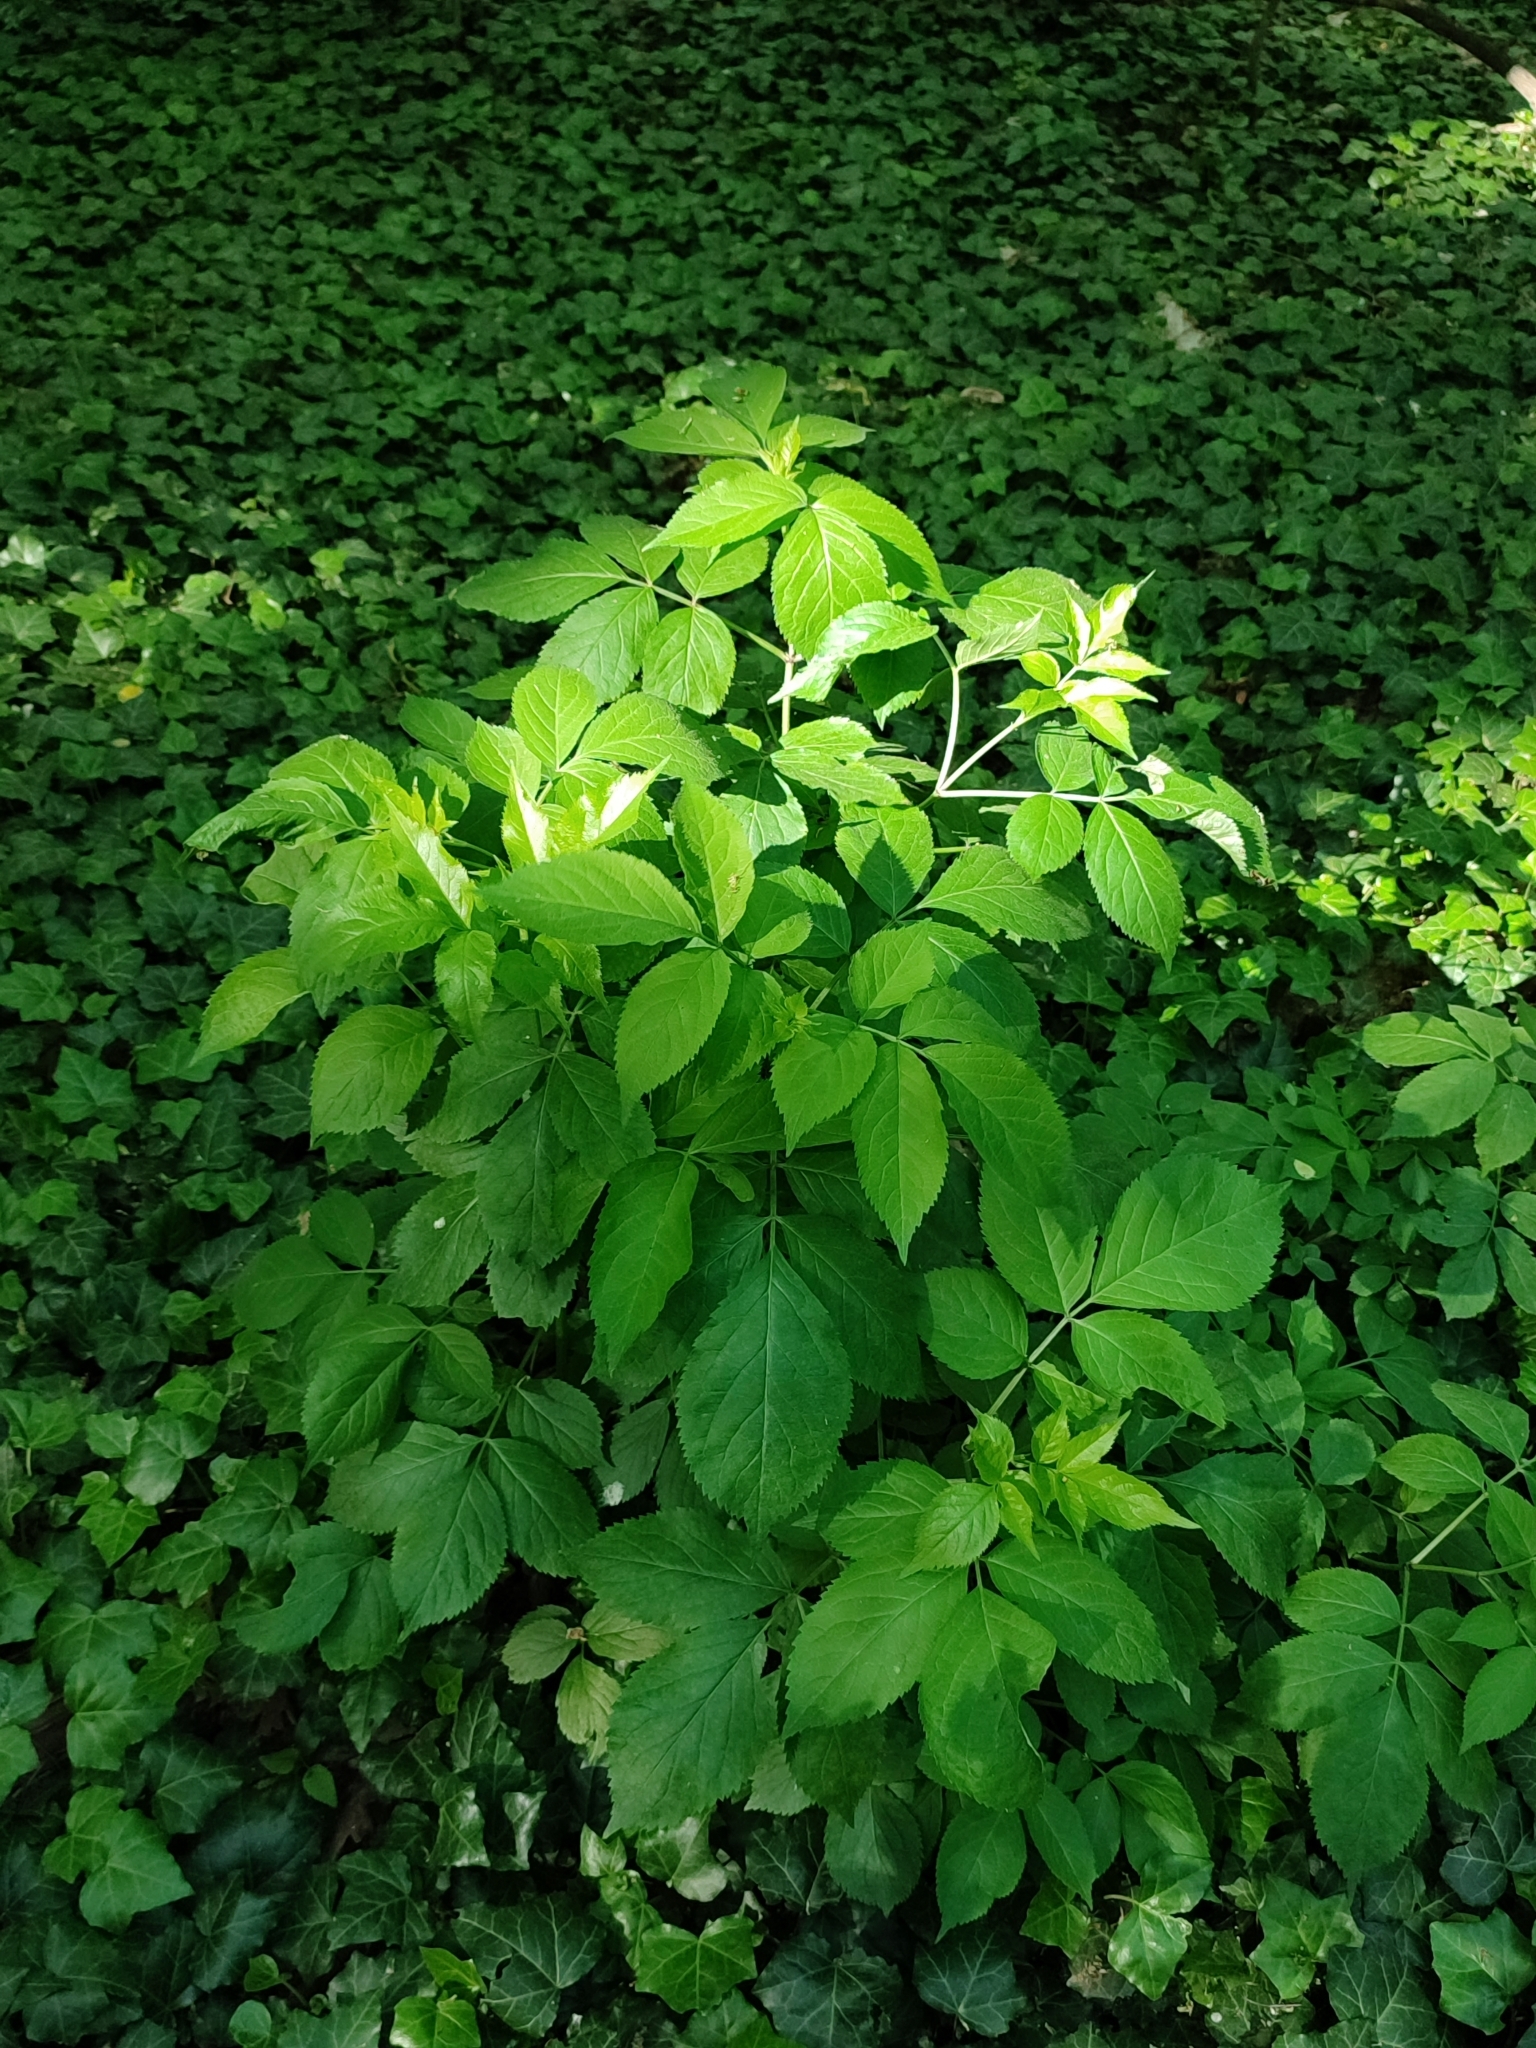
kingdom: Plantae
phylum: Tracheophyta
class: Magnoliopsida
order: Dipsacales
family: Viburnaceae
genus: Sambucus
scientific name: Sambucus nigra
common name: Elder
